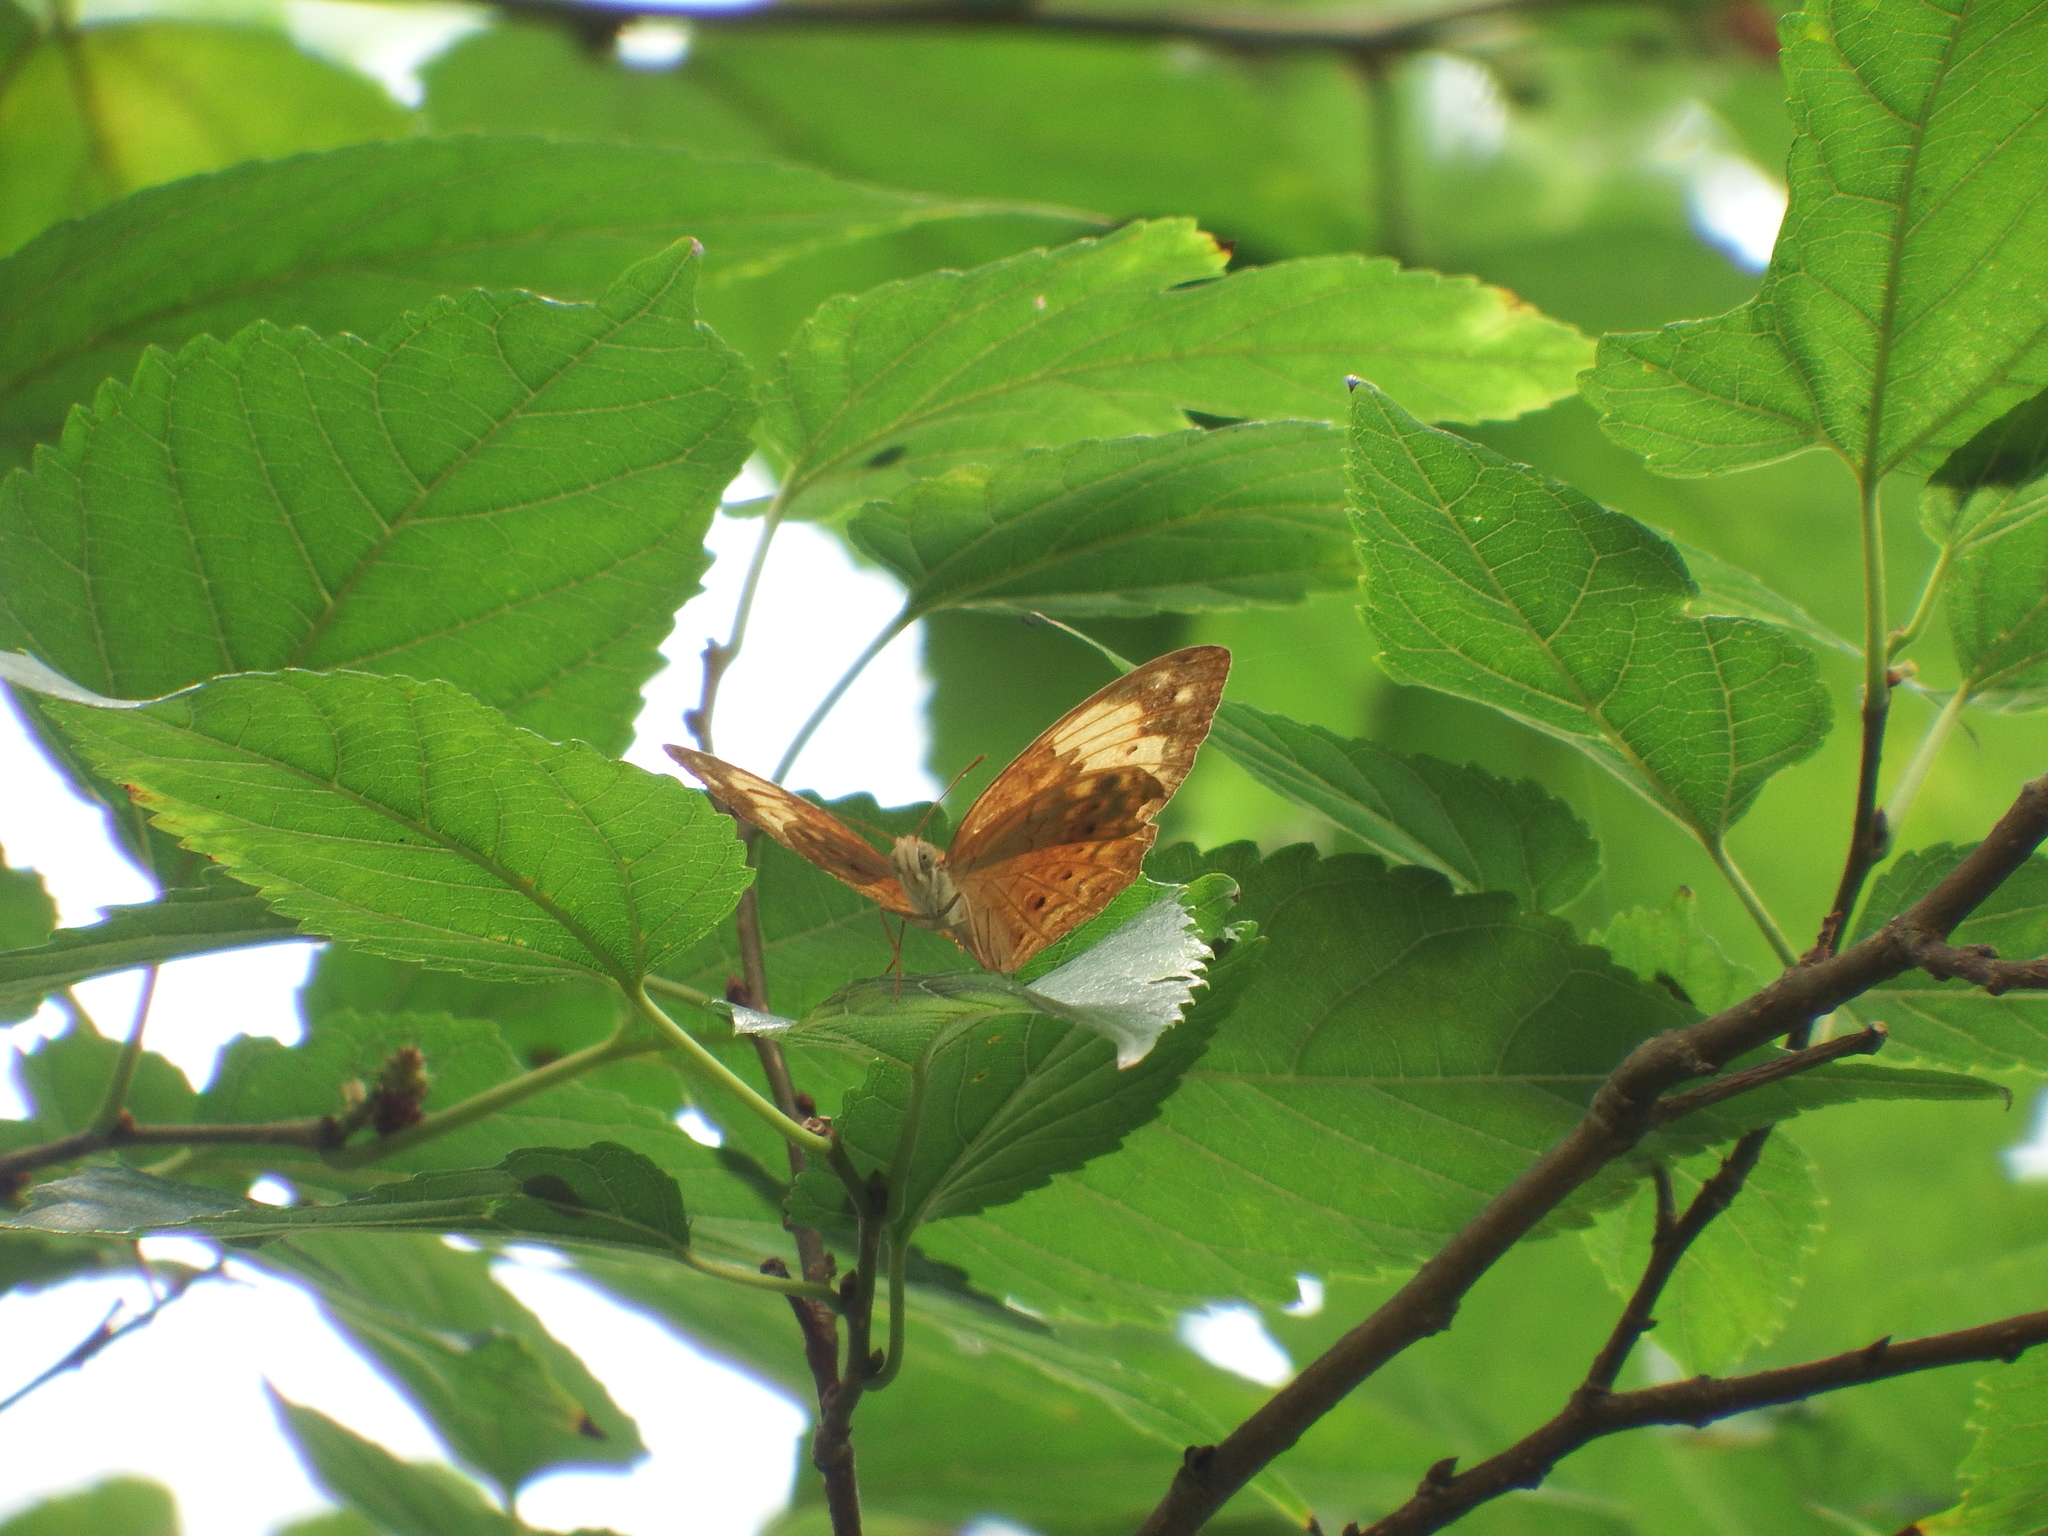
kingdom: Animalia
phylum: Arthropoda
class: Insecta
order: Lepidoptera
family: Nymphalidae
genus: Cupha
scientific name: Cupha erymanthis
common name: Rustic
